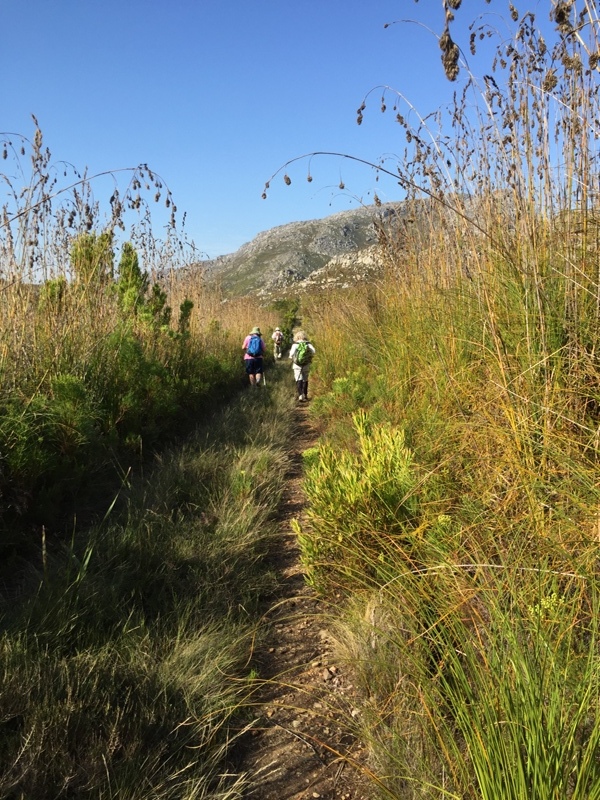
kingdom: Plantae
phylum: Tracheophyta
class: Liliopsida
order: Poales
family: Cyperaceae
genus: Tetraria
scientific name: Tetraria bromoides
